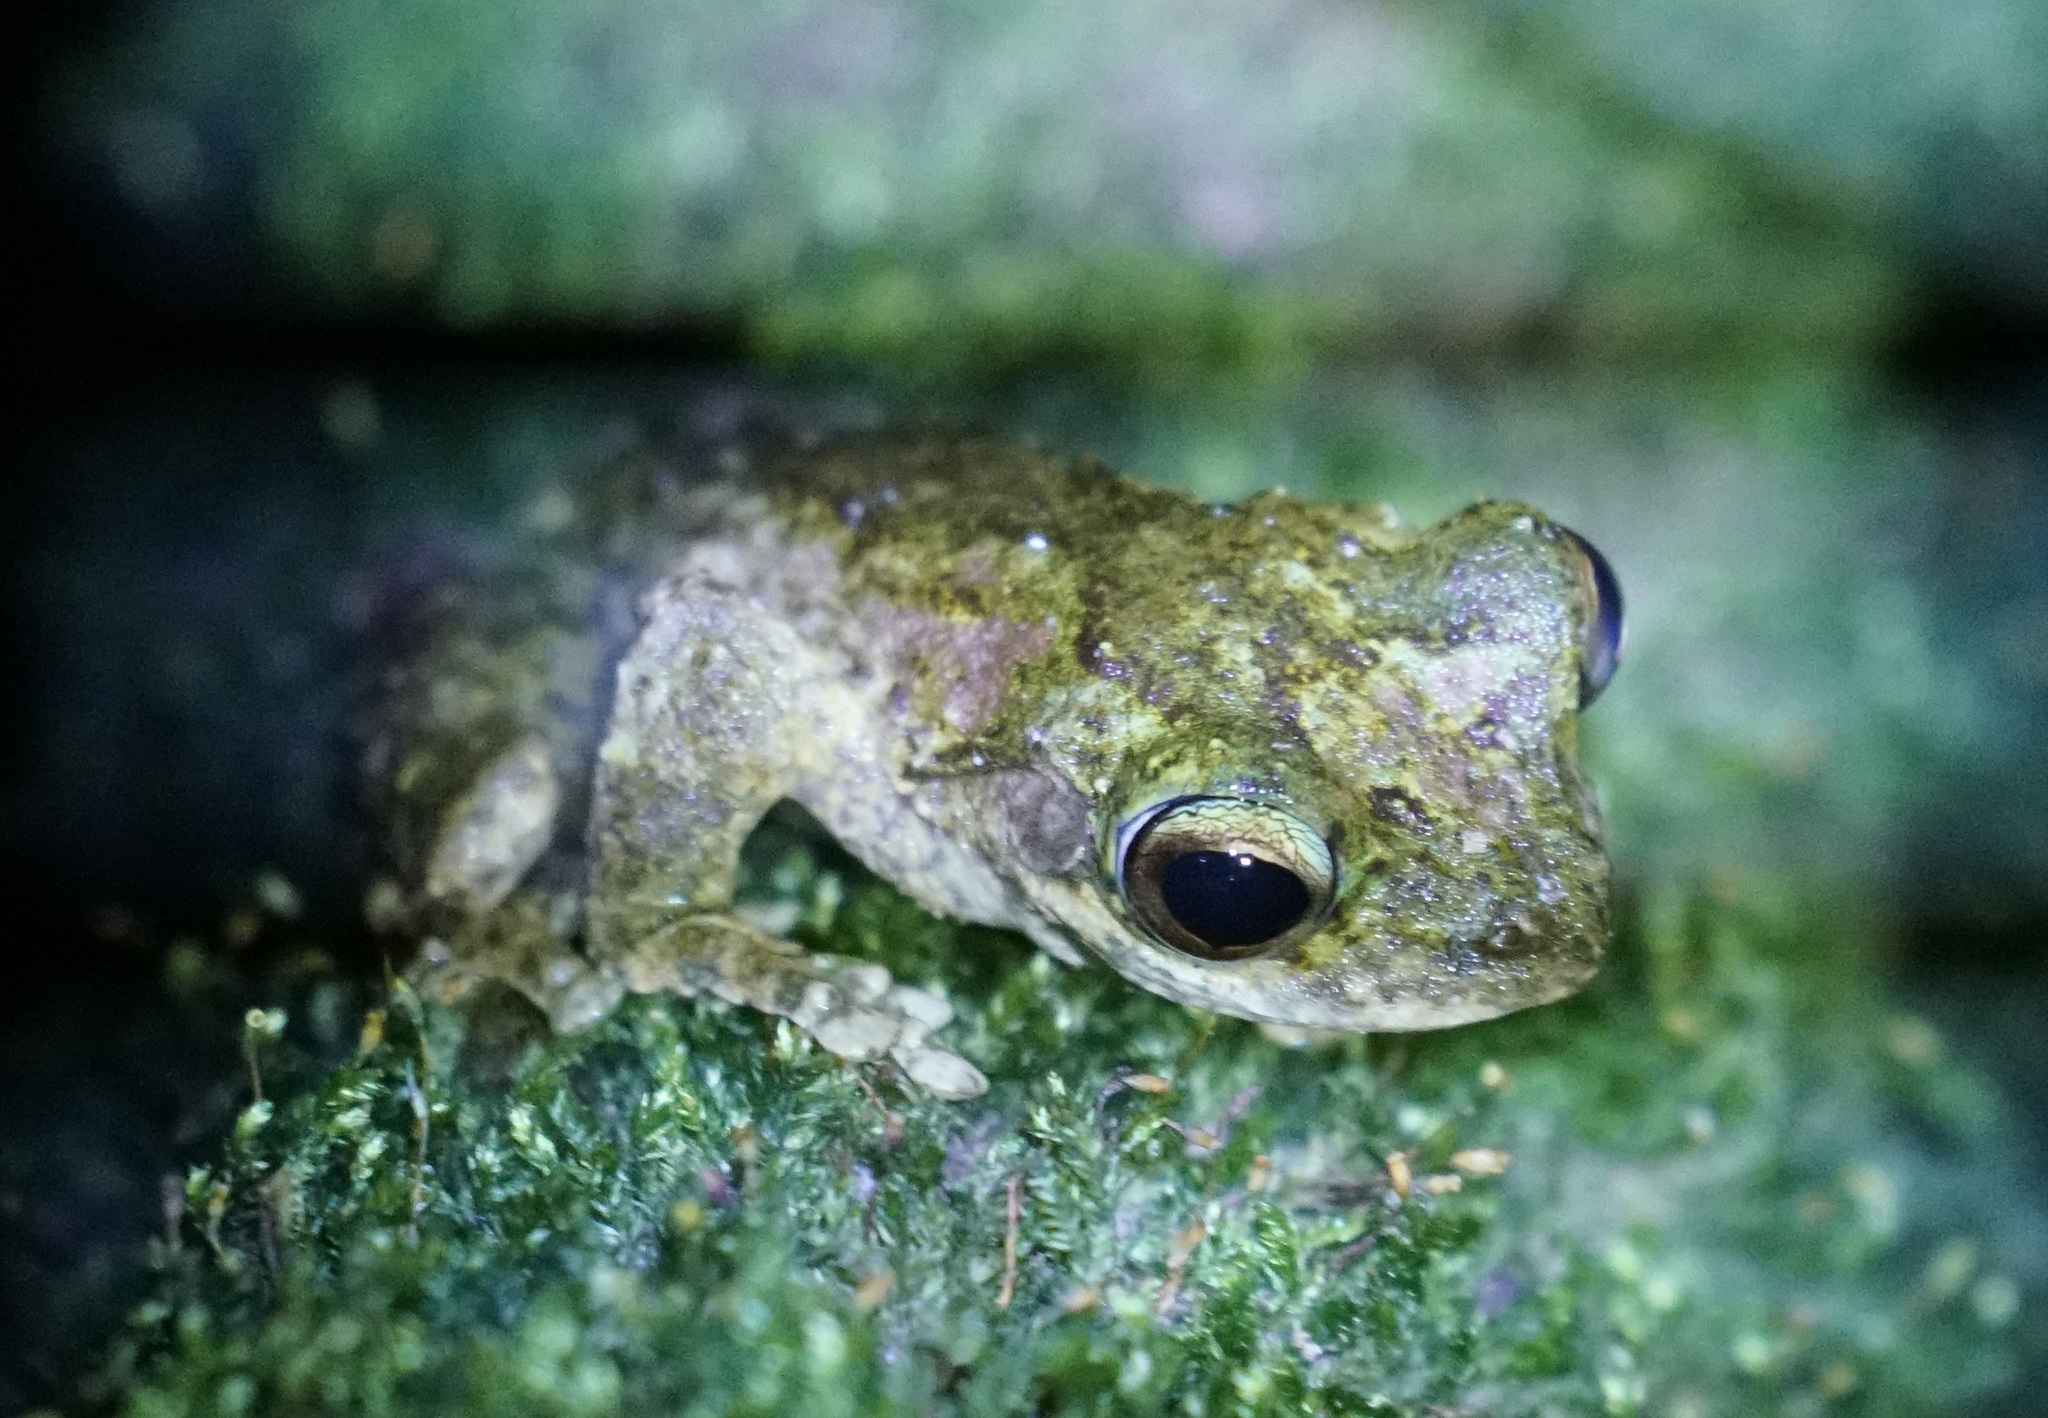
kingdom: Animalia
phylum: Chordata
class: Amphibia
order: Anura
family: Hylidae
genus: Ranoidea
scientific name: Ranoidea
